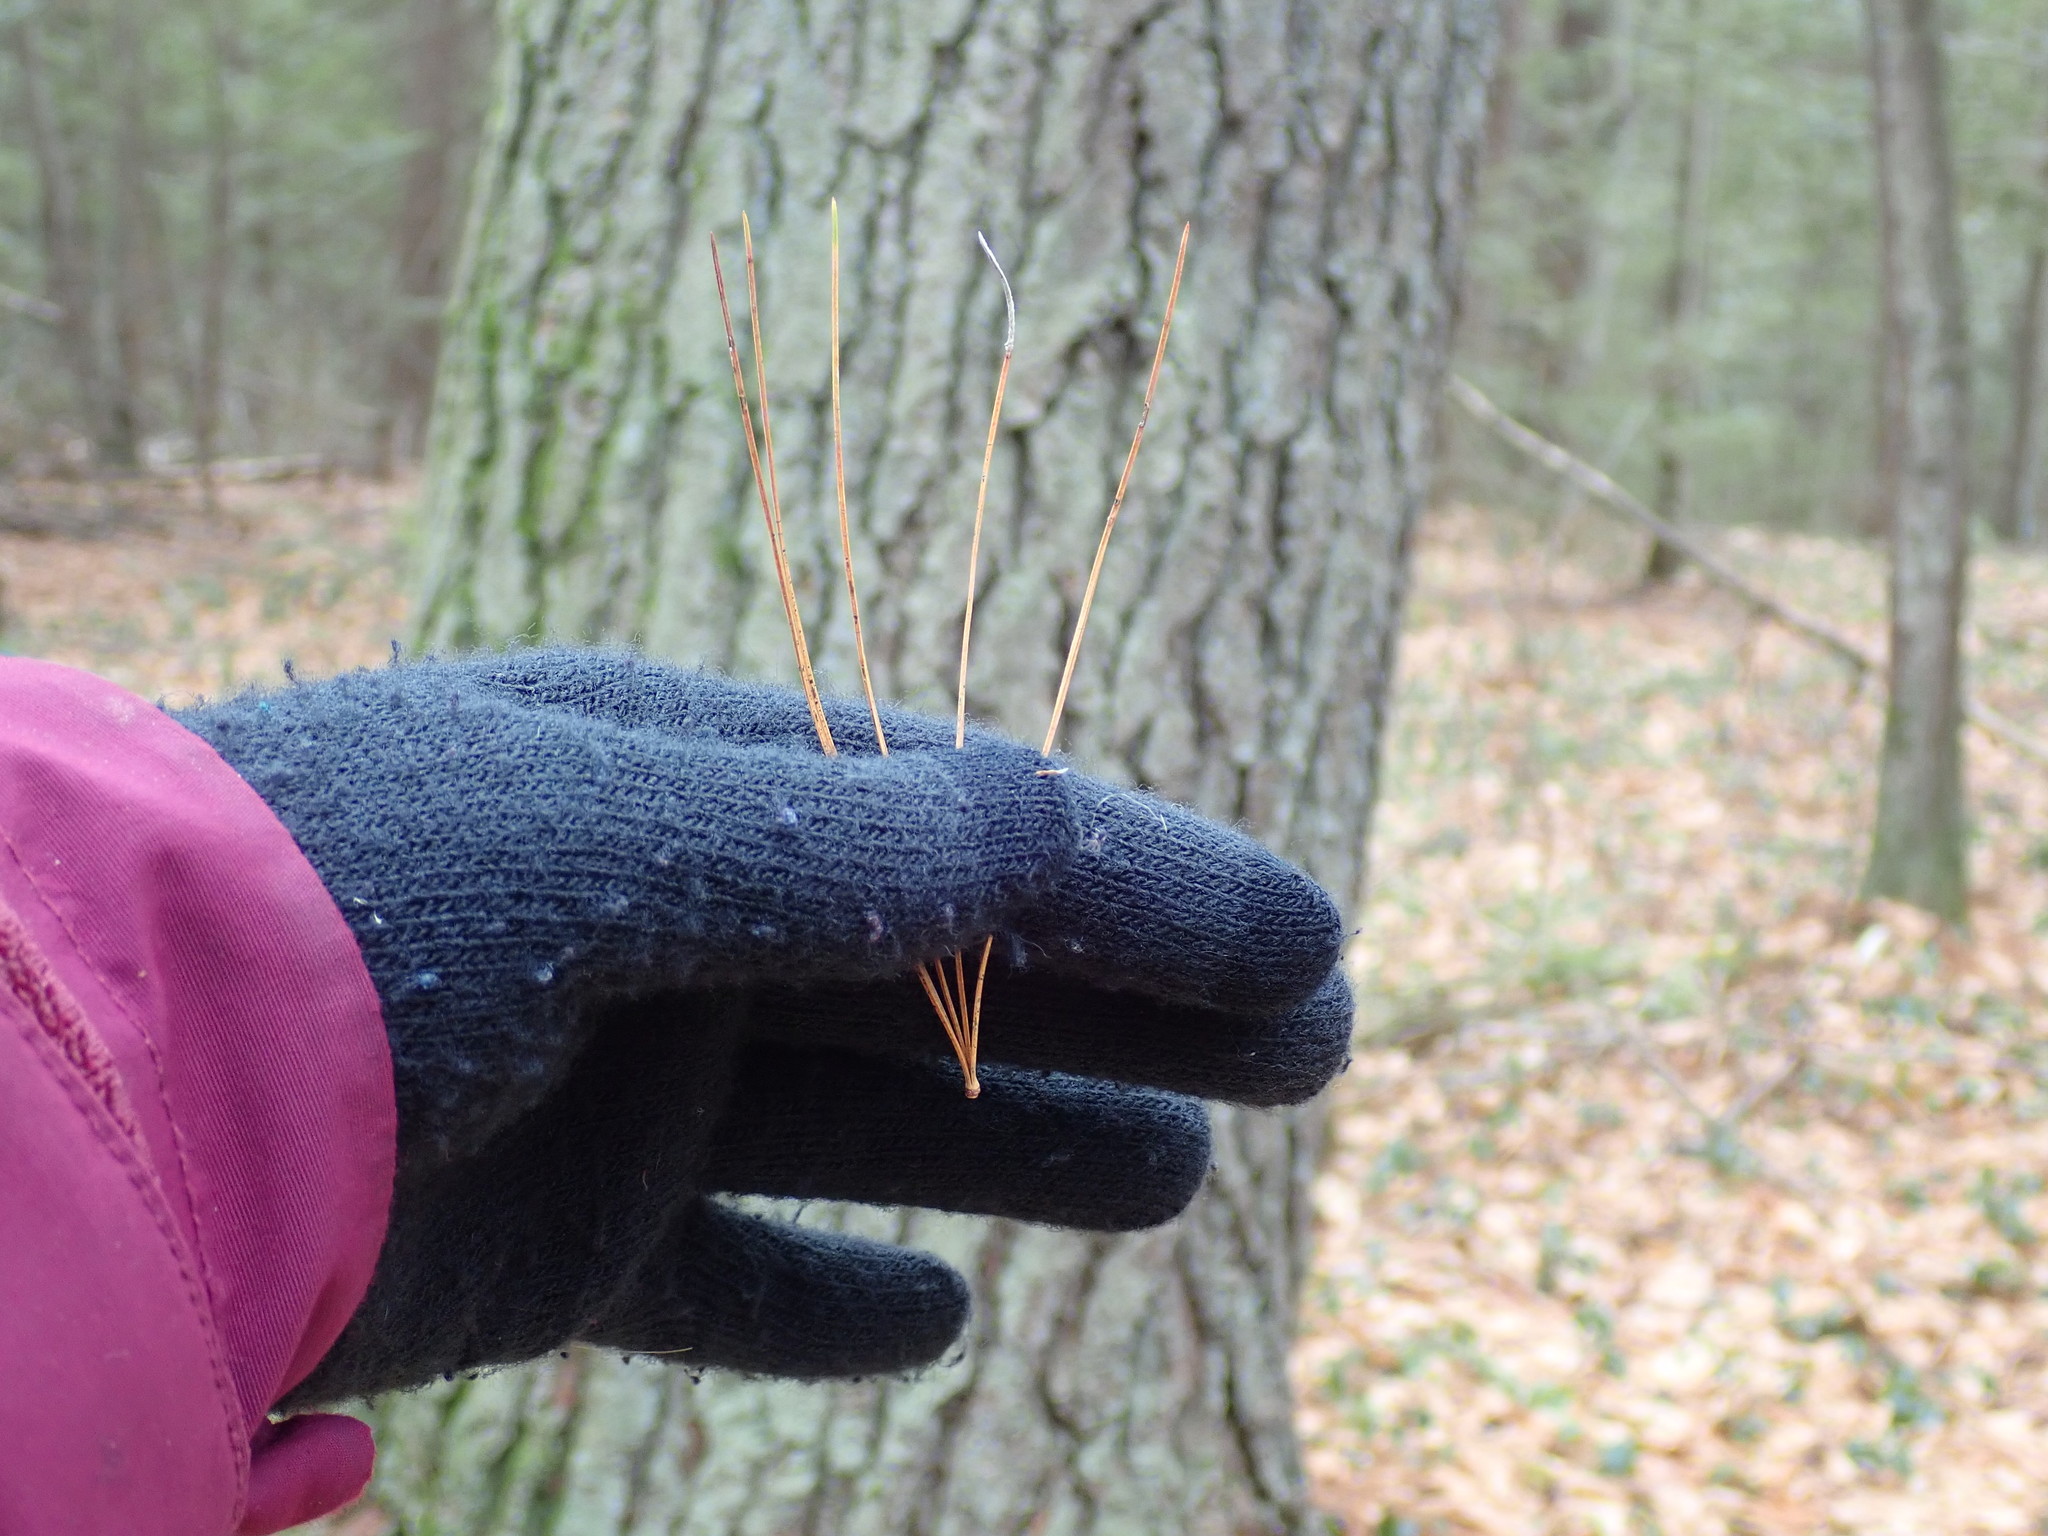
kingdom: Plantae
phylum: Tracheophyta
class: Pinopsida
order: Pinales
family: Pinaceae
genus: Pinus
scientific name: Pinus strobus
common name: Weymouth pine
